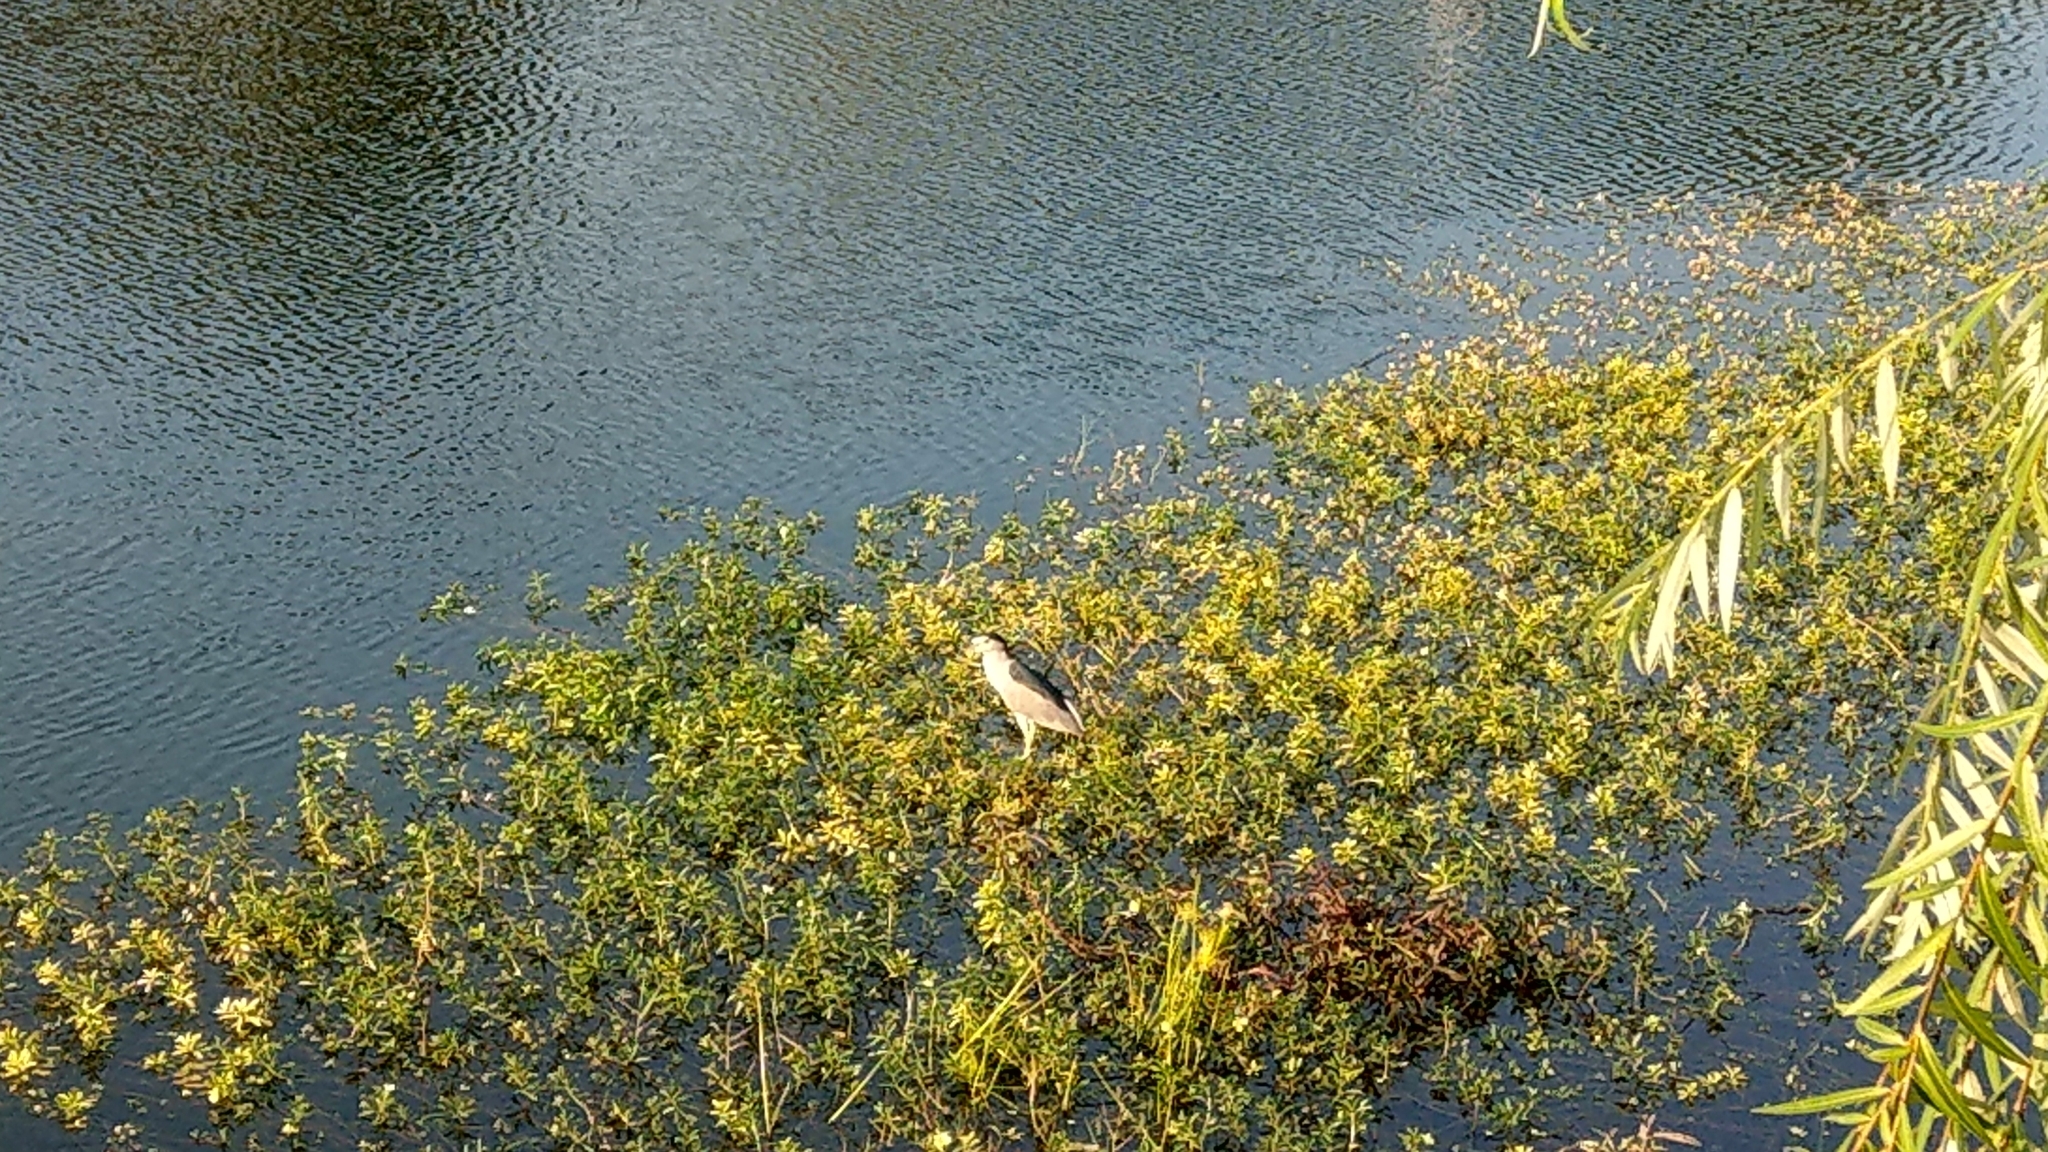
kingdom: Animalia
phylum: Chordata
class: Aves
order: Pelecaniformes
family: Ardeidae
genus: Nycticorax
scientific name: Nycticorax nycticorax
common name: Black-crowned night heron
